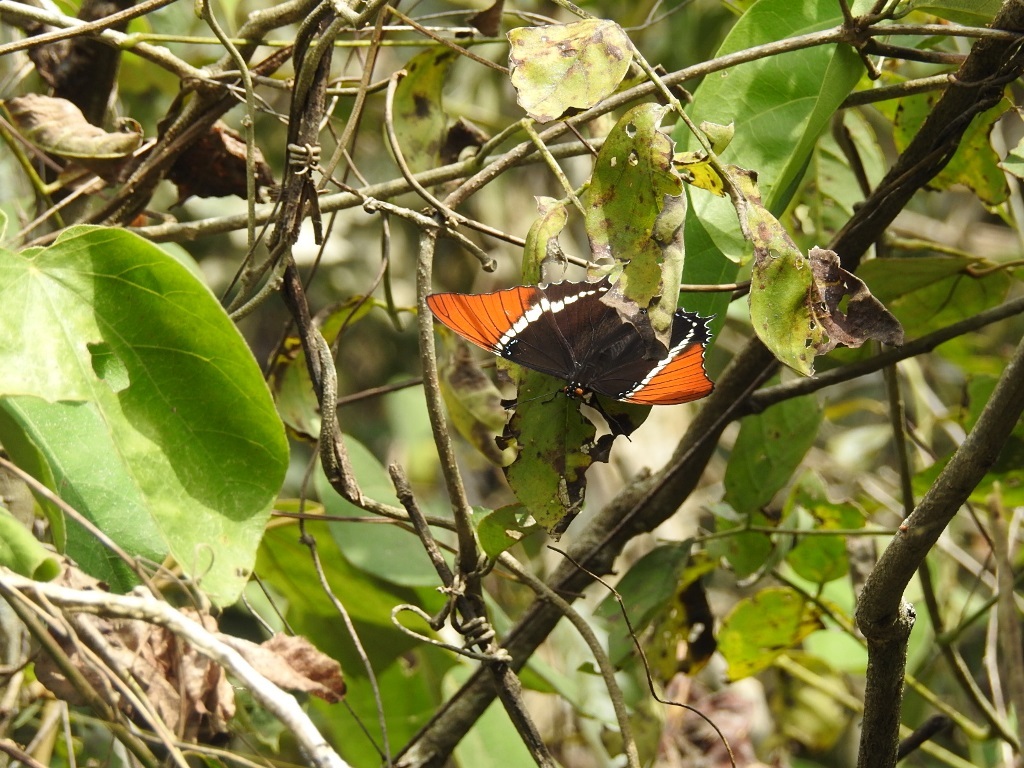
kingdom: Animalia
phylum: Arthropoda
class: Insecta
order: Lepidoptera
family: Nymphalidae
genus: Siproeta
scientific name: Siproeta epaphus
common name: Rusty-tipped page
